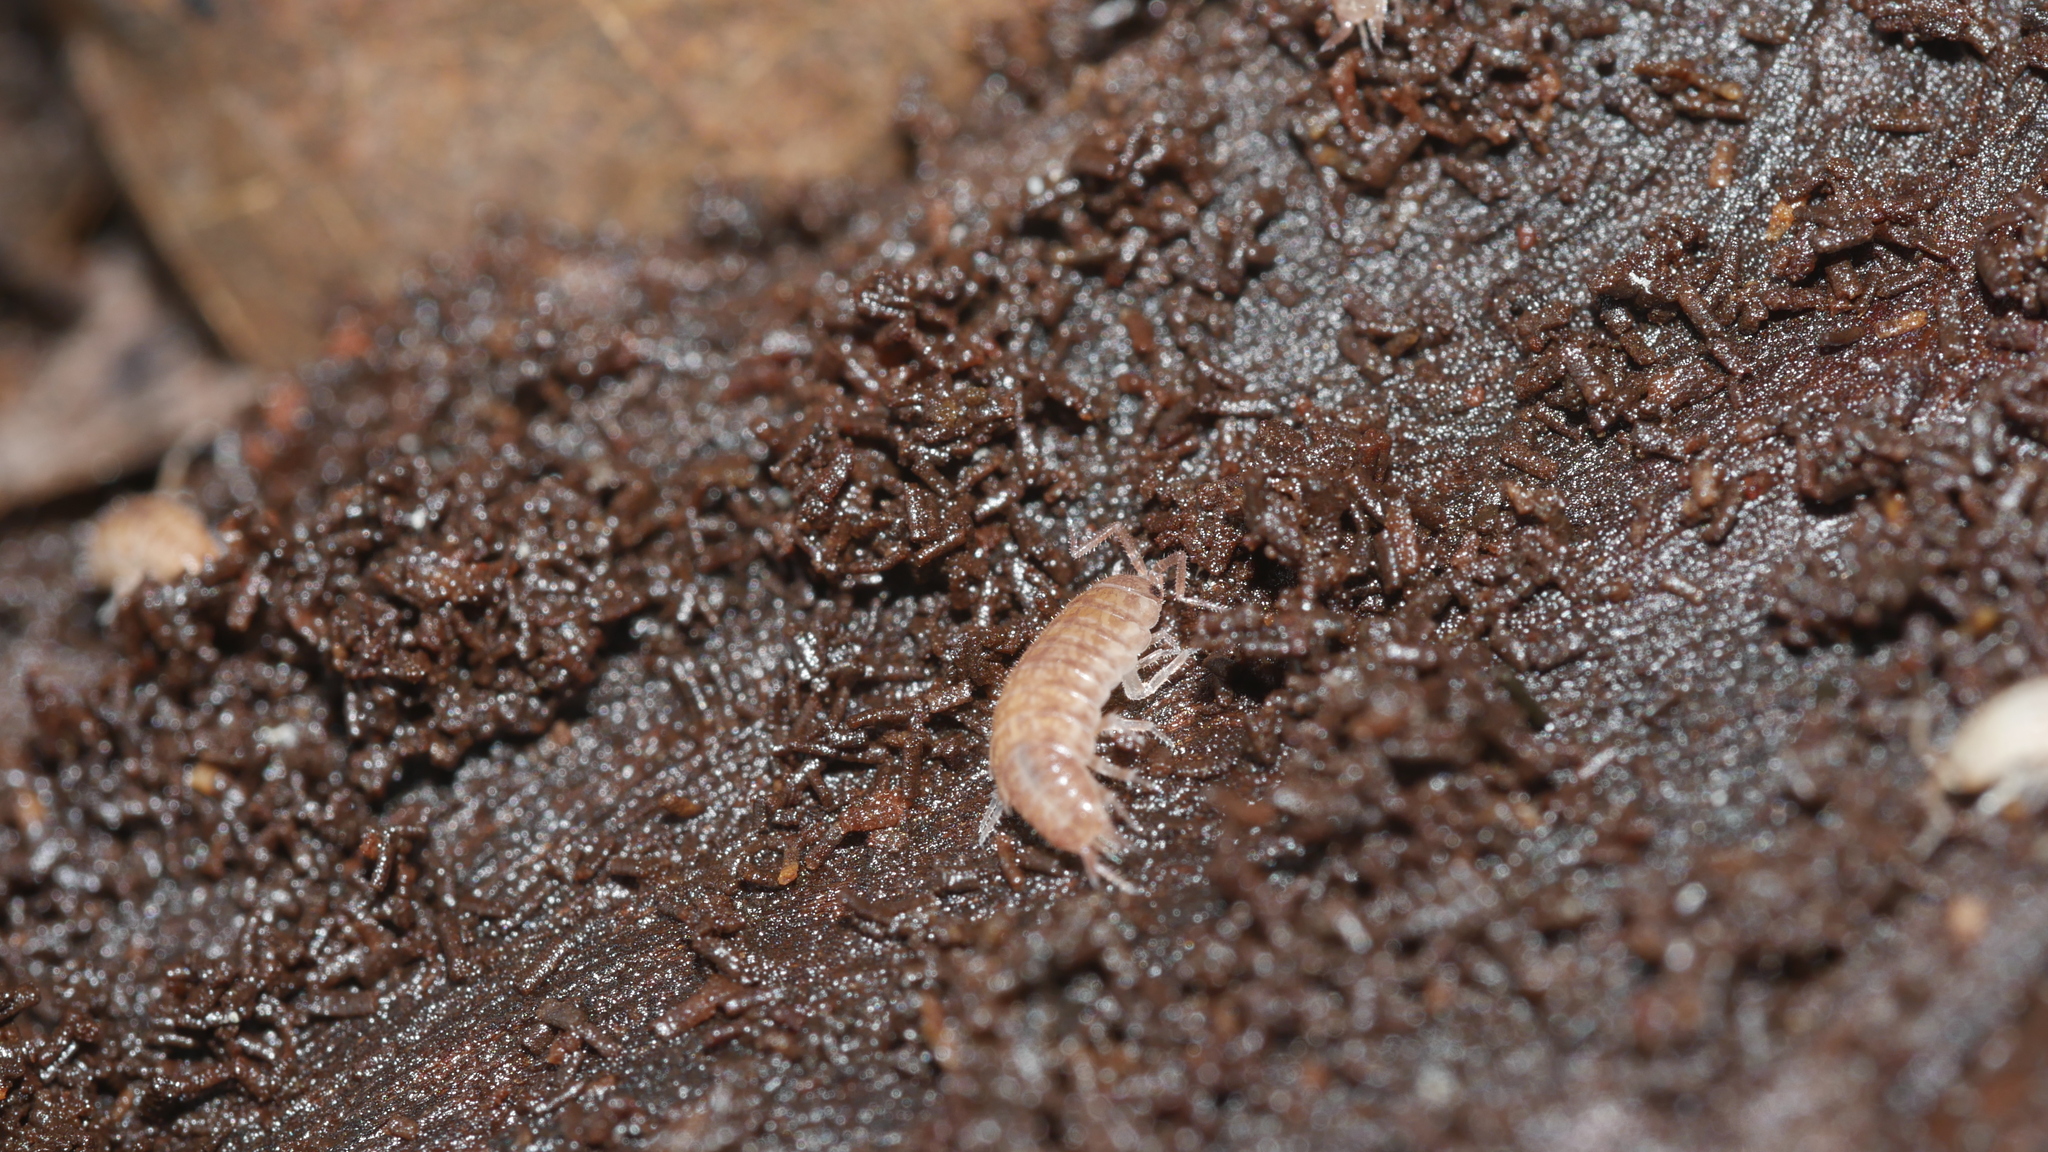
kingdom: Animalia
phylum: Arthropoda
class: Malacostraca
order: Isopoda
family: Philosciidae
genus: Chaetophiloscia
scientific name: Chaetophiloscia sicula
